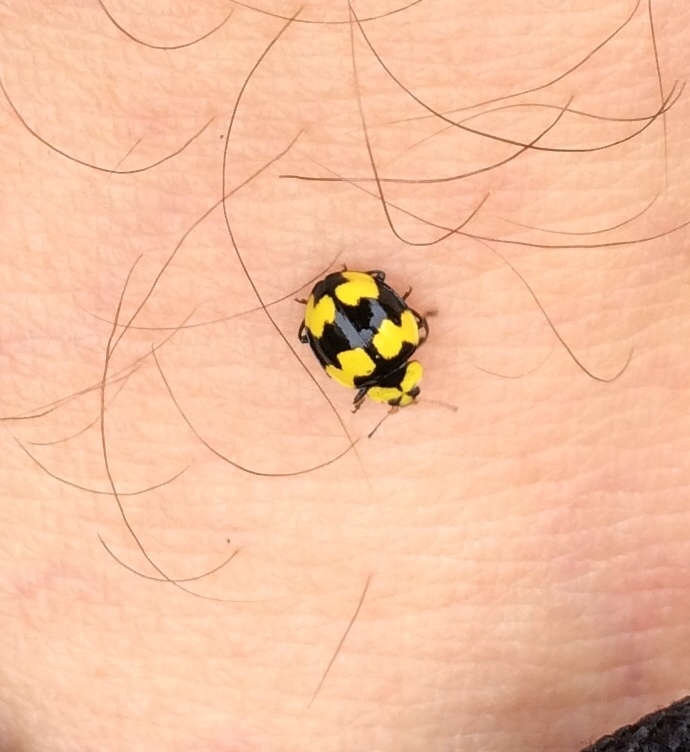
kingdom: Animalia
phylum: Arthropoda
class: Insecta
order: Coleoptera
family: Coccinellidae
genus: Illeis
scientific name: Illeis galbula
